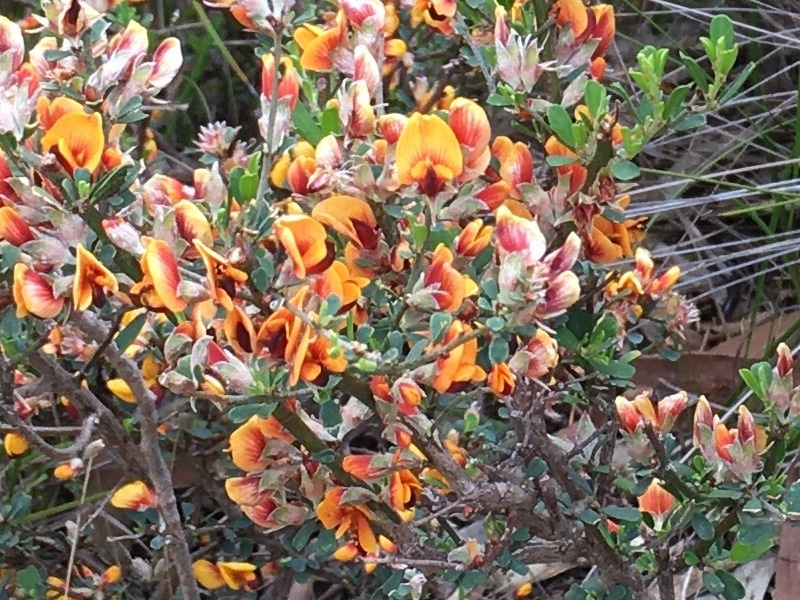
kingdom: Plantae
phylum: Tracheophyta
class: Magnoliopsida
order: Fabales
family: Fabaceae
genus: Pultenaea
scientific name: Pultenaea largiflorens
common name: Twiggy bush-pea
